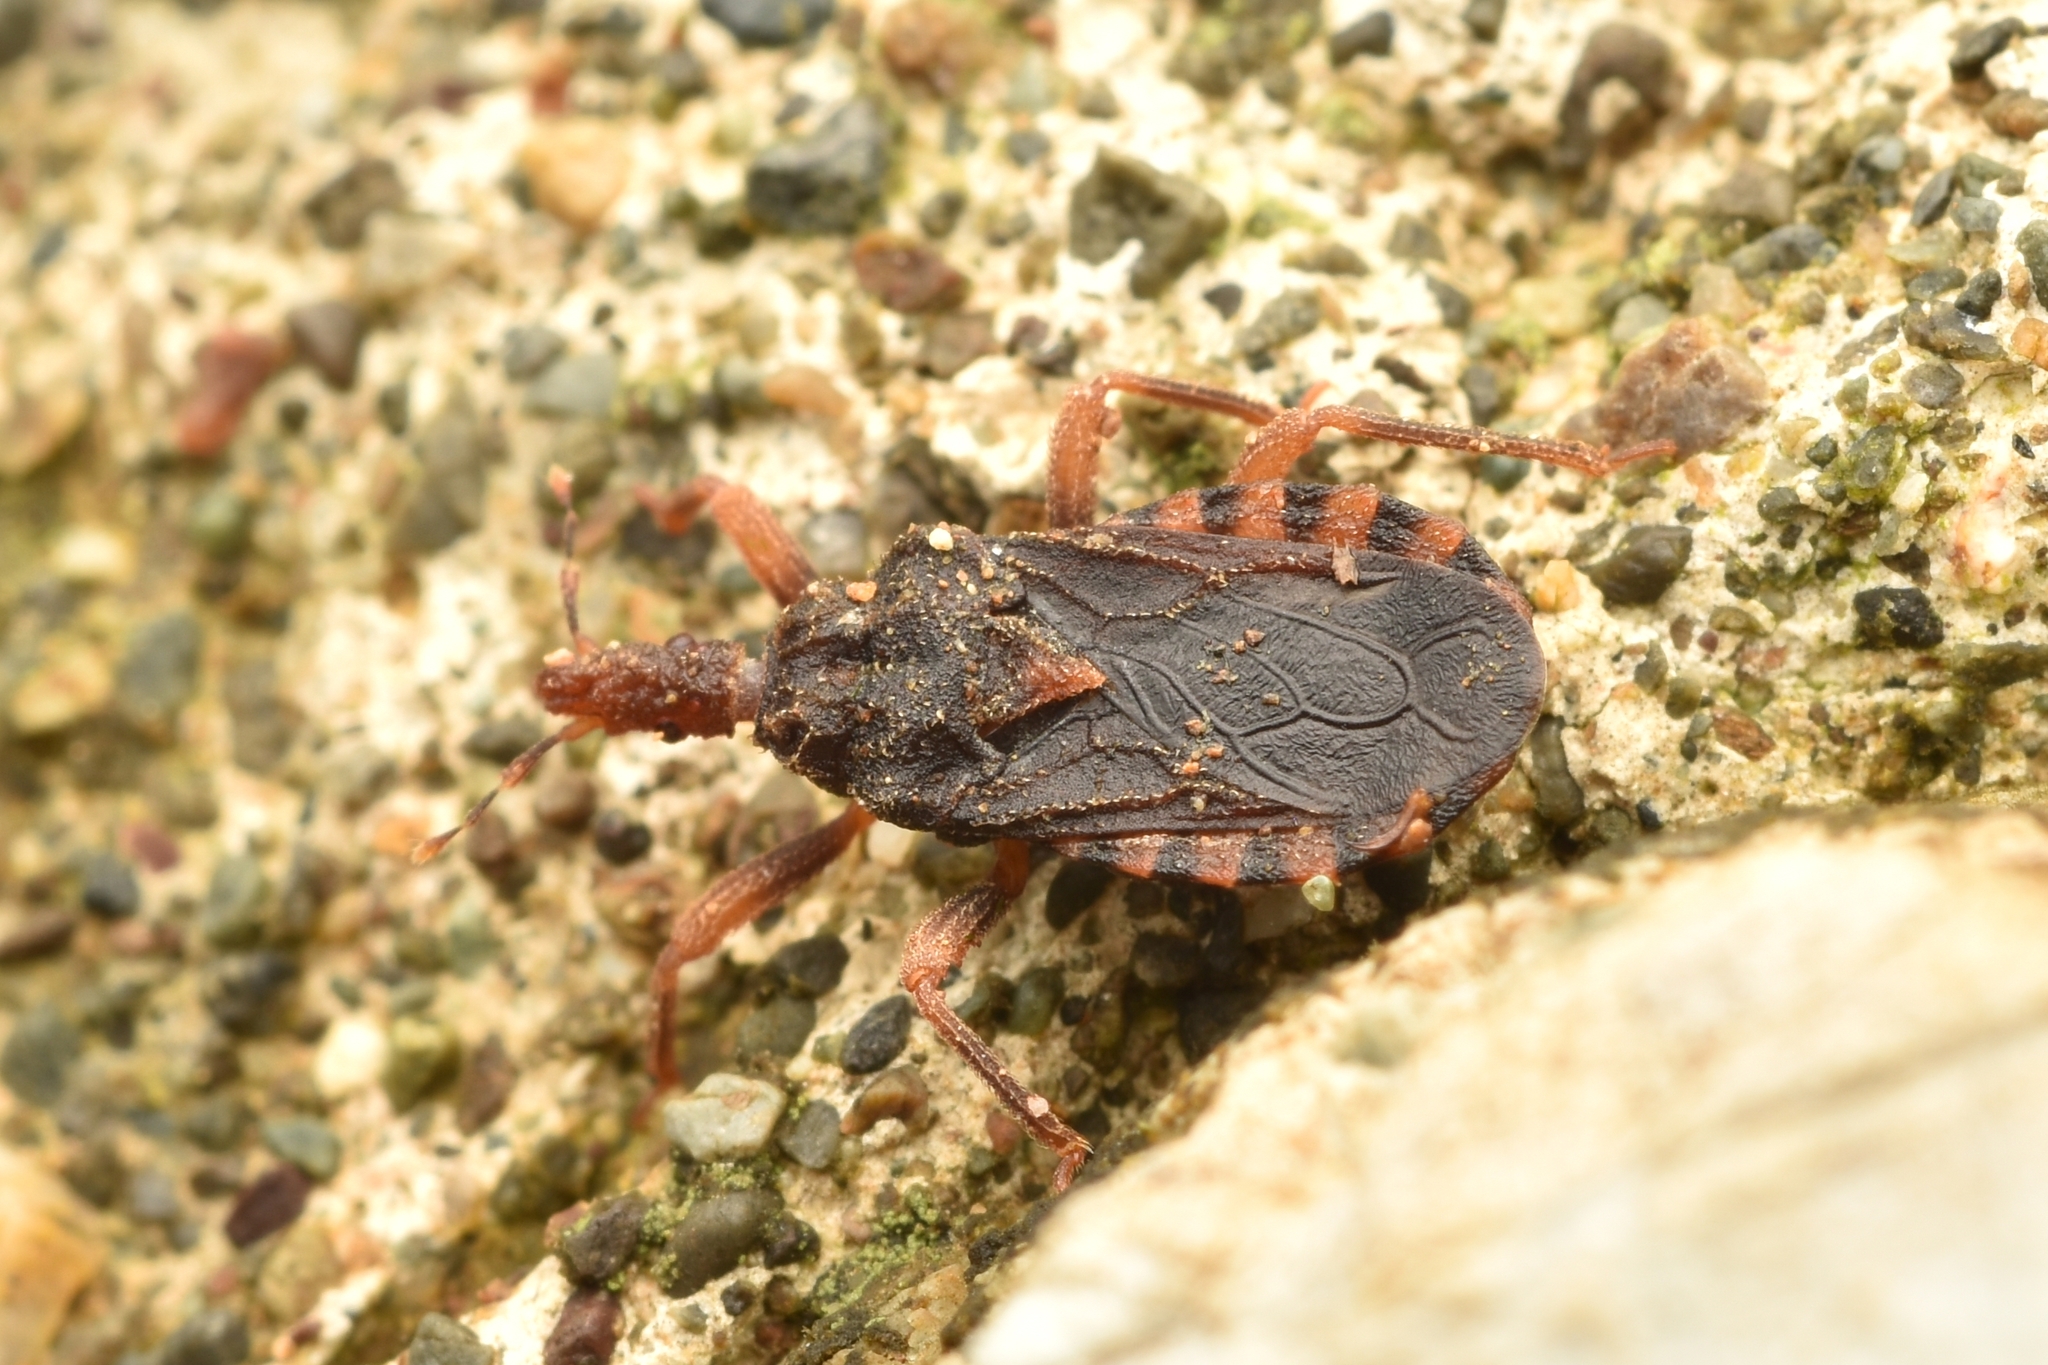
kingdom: Animalia
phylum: Arthropoda
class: Insecta
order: Hemiptera
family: Reduviidae
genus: Cryptophysoderes
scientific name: Cryptophysoderes fairchildi
